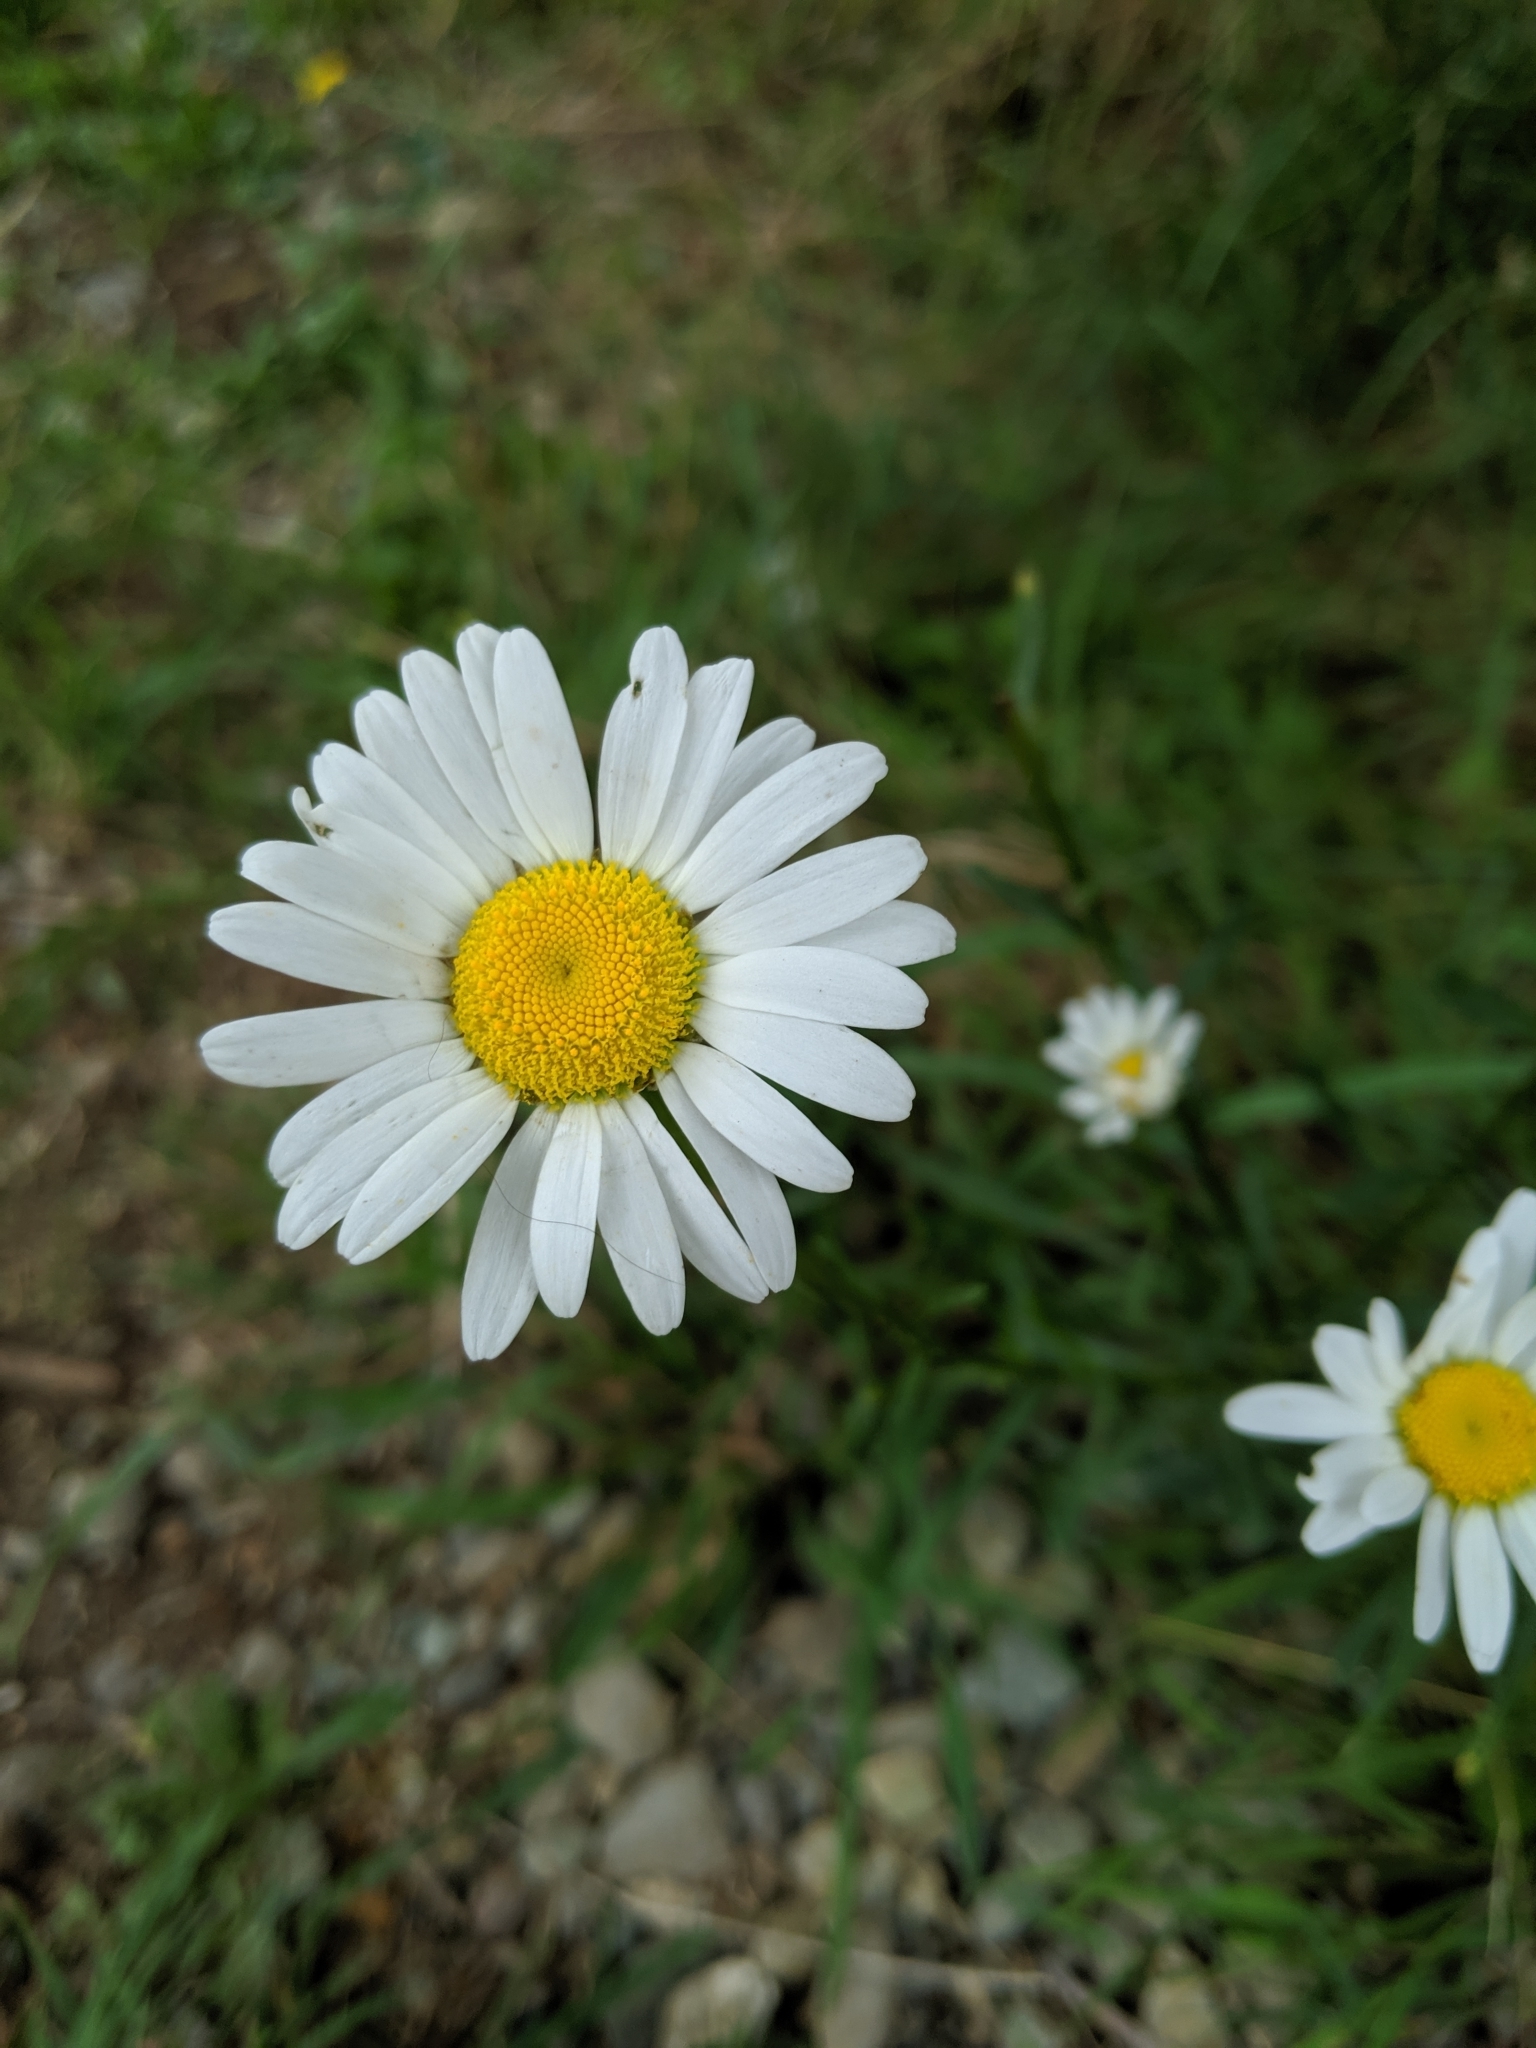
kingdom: Plantae
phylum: Tracheophyta
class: Magnoliopsida
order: Asterales
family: Asteraceae
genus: Leucanthemum
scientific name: Leucanthemum vulgare
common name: Oxeye daisy
